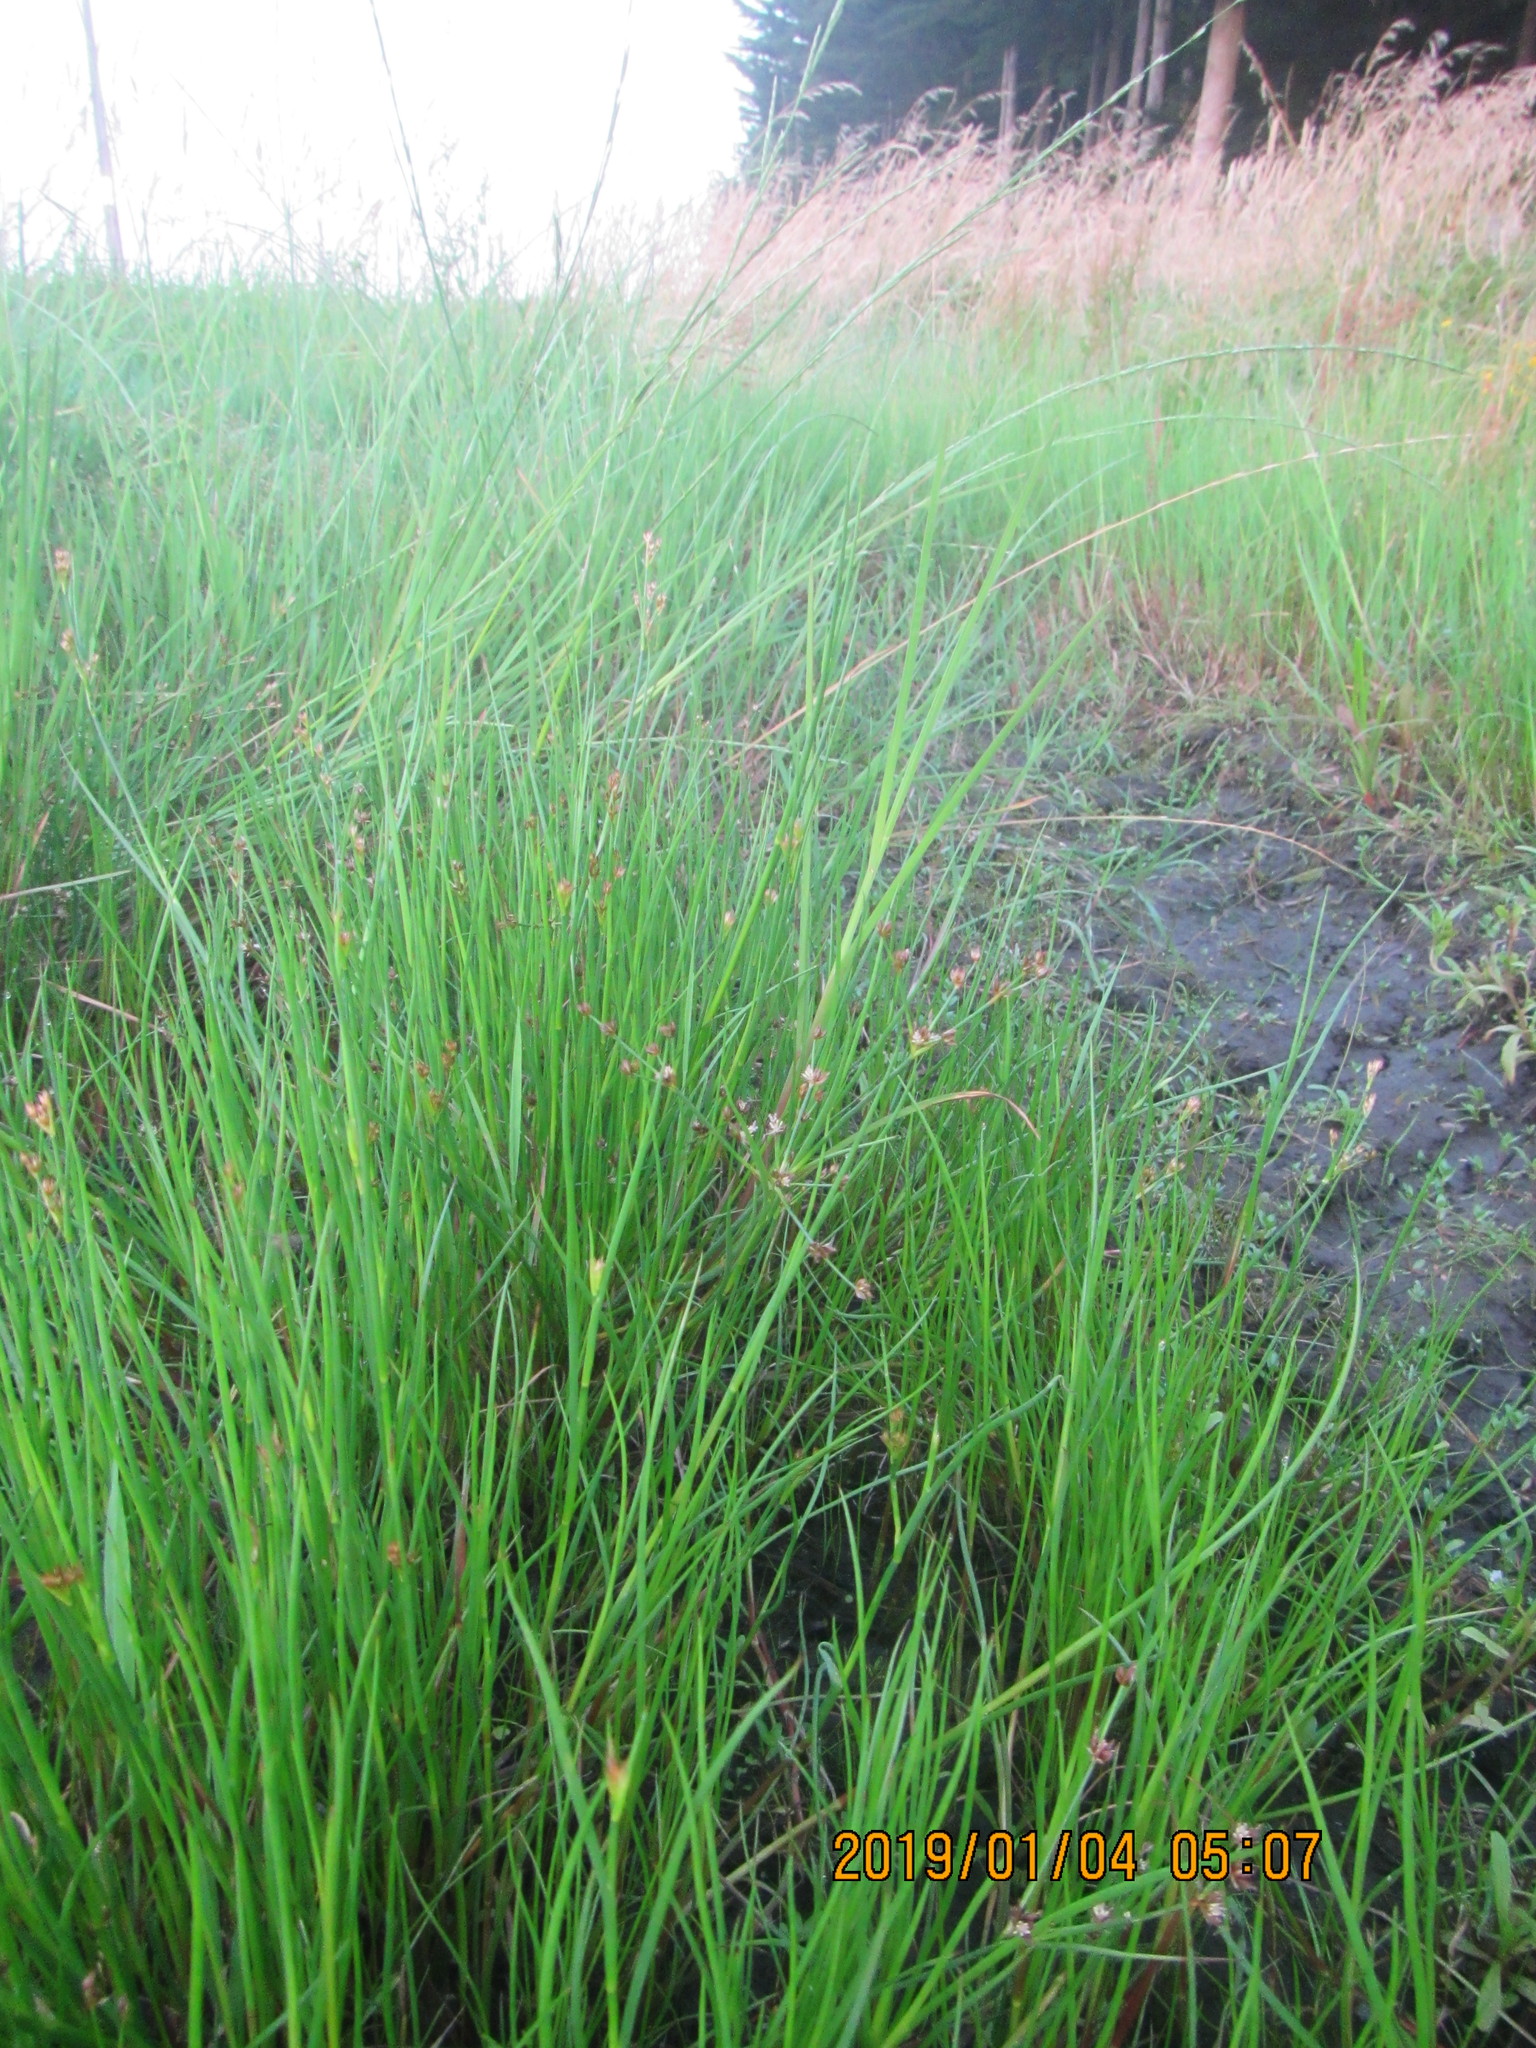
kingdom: Plantae
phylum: Tracheophyta
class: Liliopsida
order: Poales
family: Juncaceae
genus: Juncus
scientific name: Juncus articulatus
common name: Jointed rush
